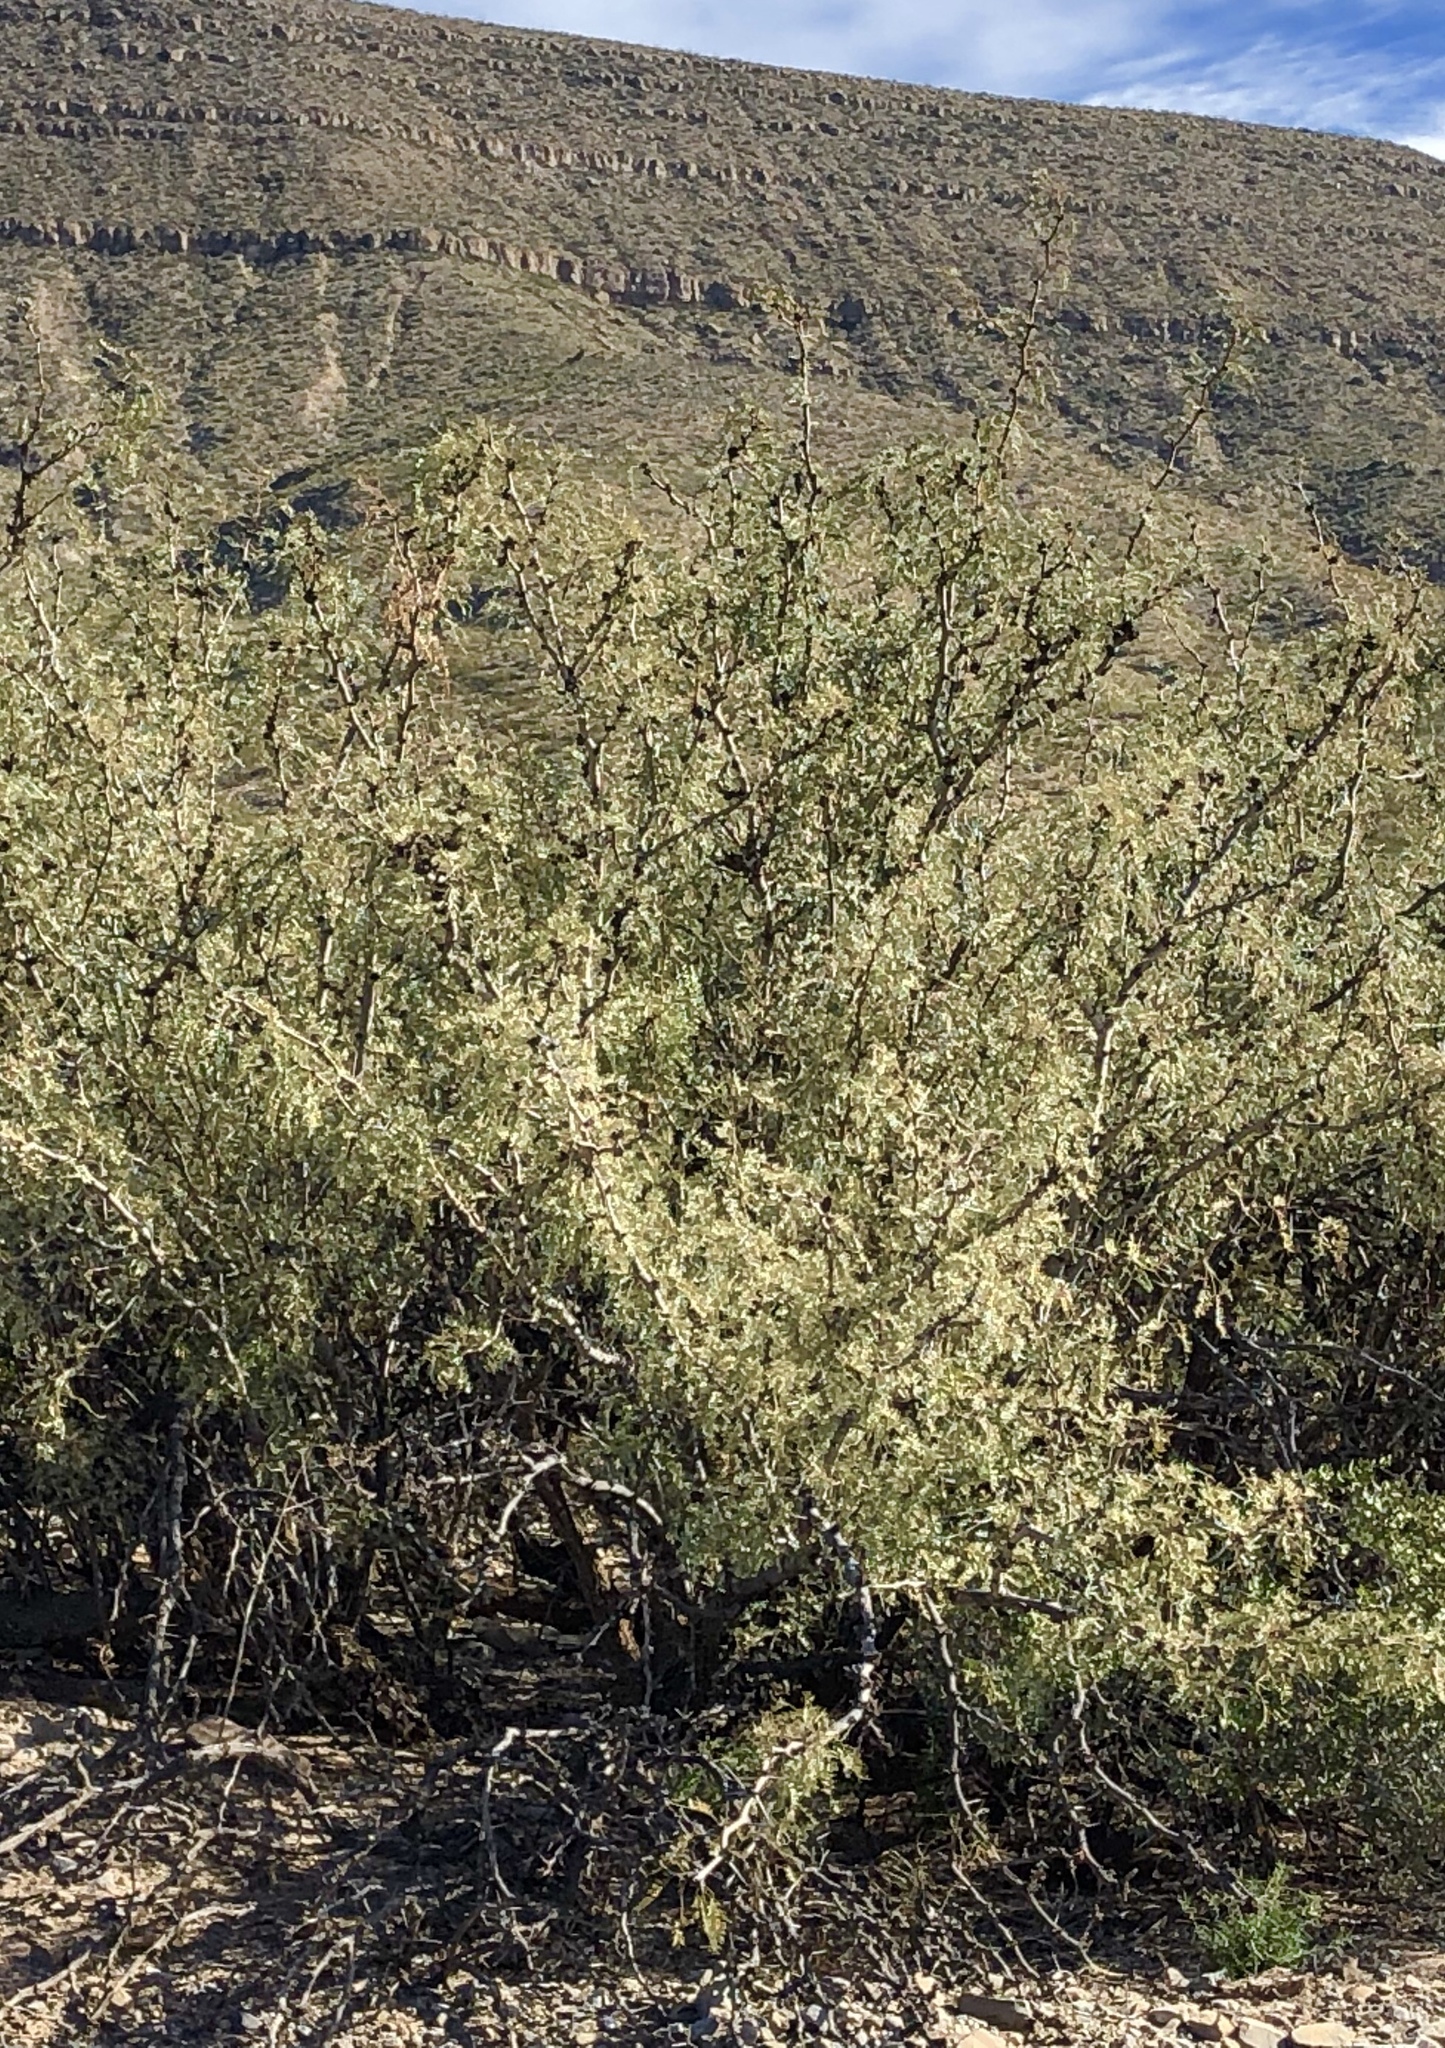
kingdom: Plantae
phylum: Tracheophyta
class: Magnoliopsida
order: Fabales
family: Fabaceae
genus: Prosopis
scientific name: Prosopis glandulosa
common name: Honey mesquite
